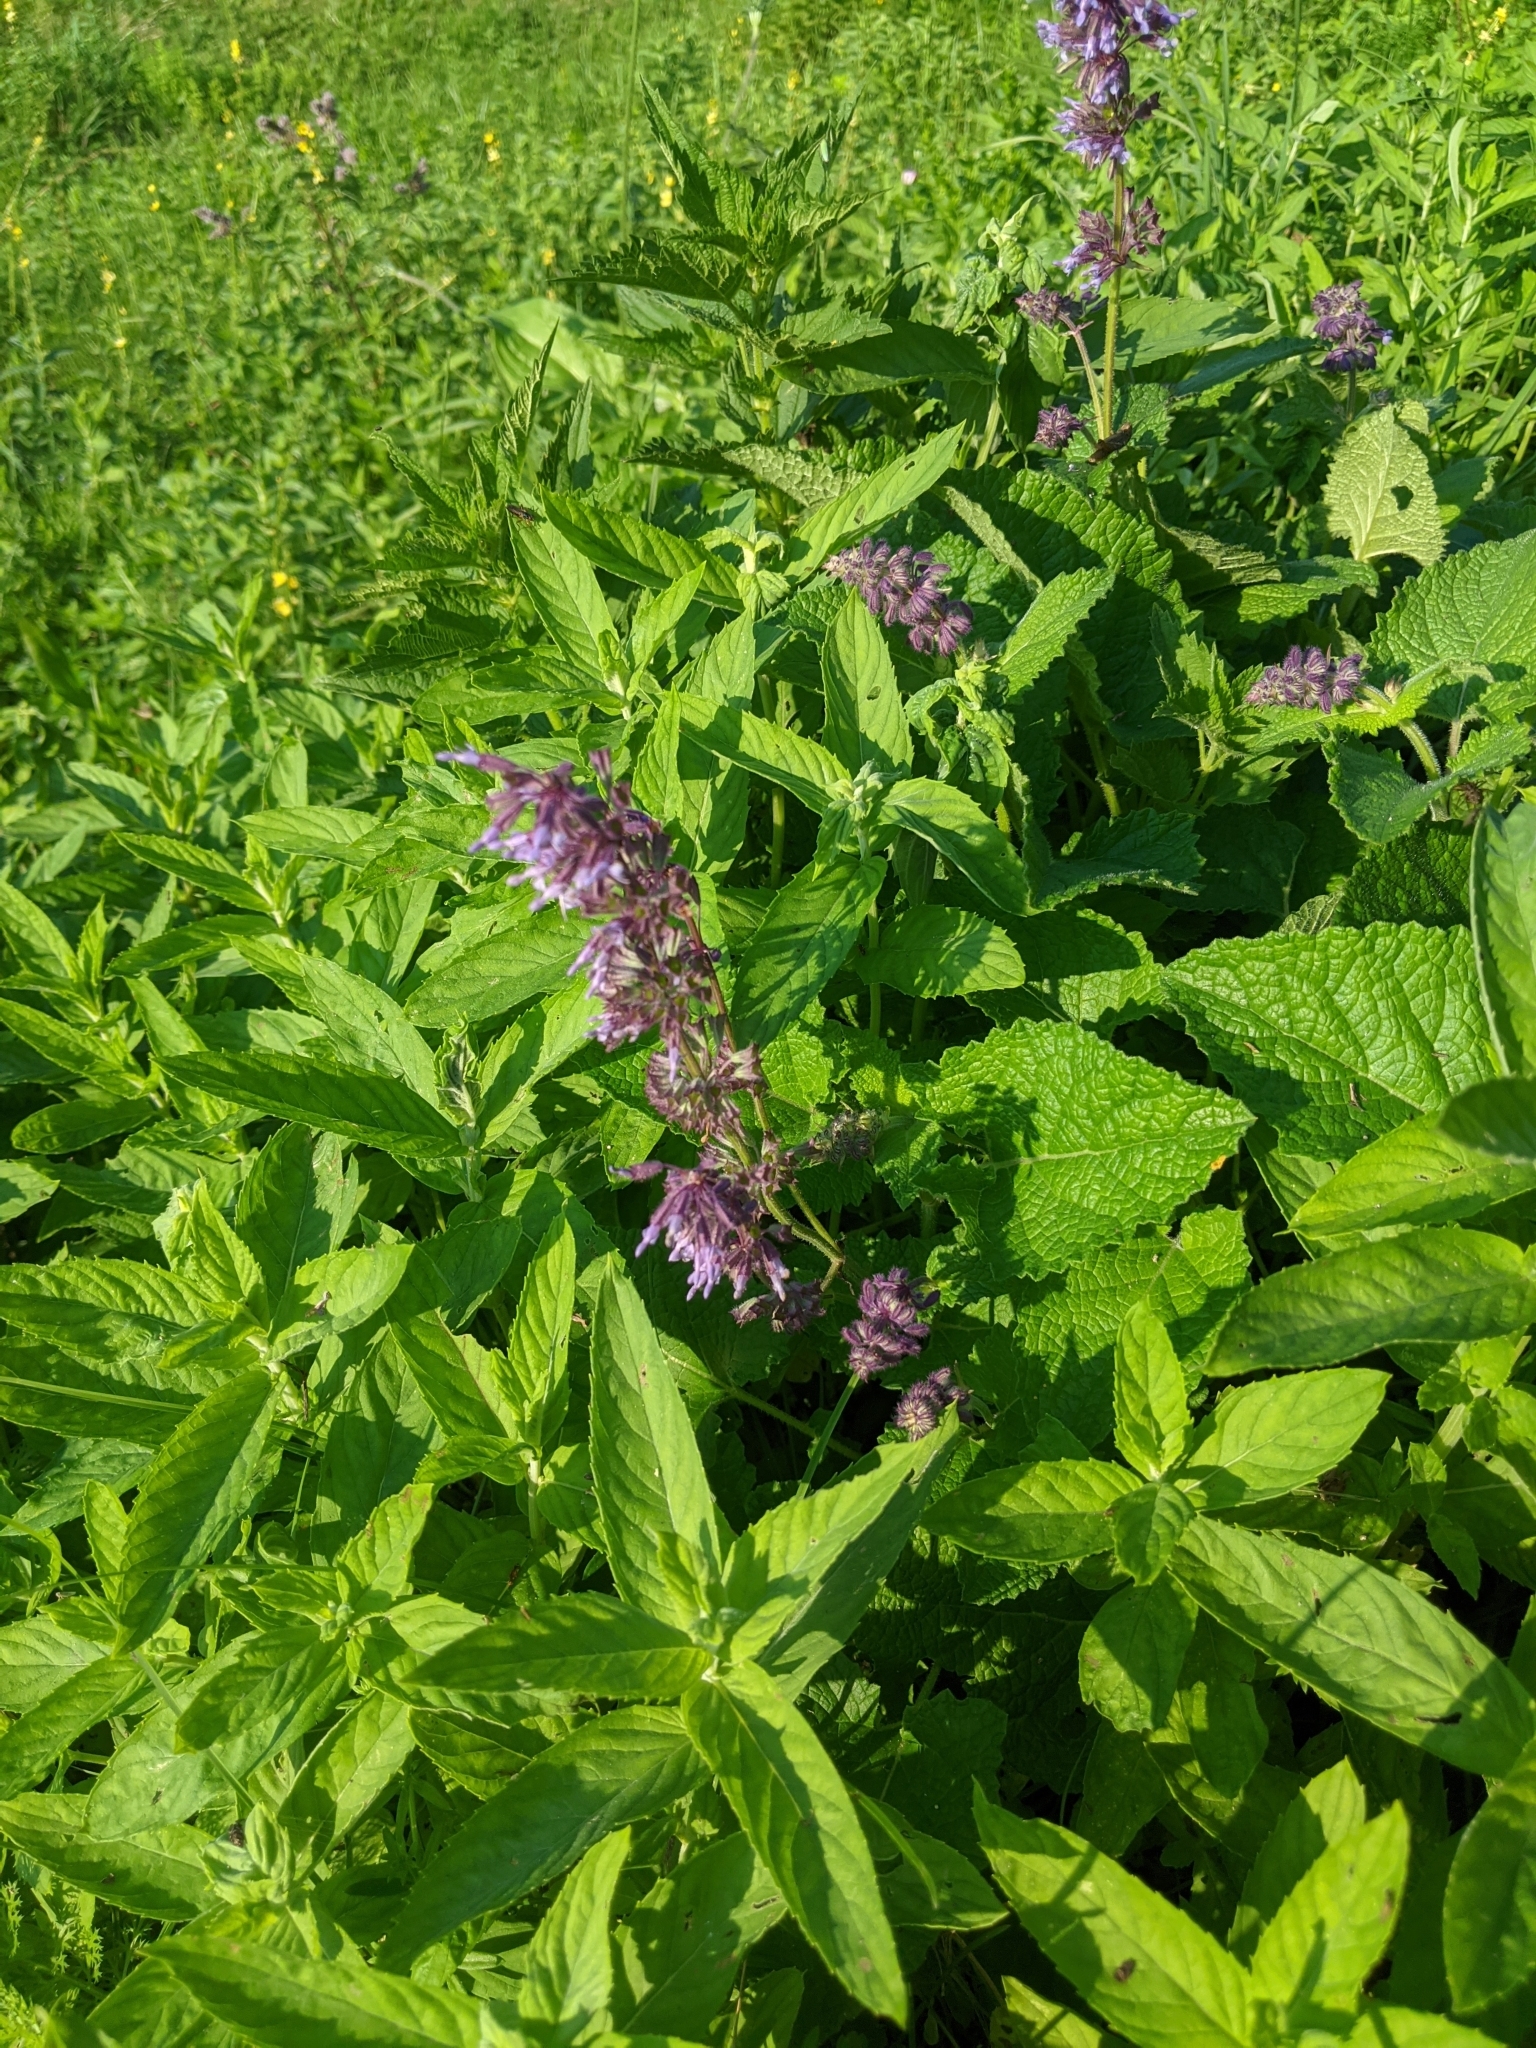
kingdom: Plantae
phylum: Tracheophyta
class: Magnoliopsida
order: Lamiales
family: Lamiaceae
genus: Salvia
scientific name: Salvia verticillata
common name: Whorled clary
